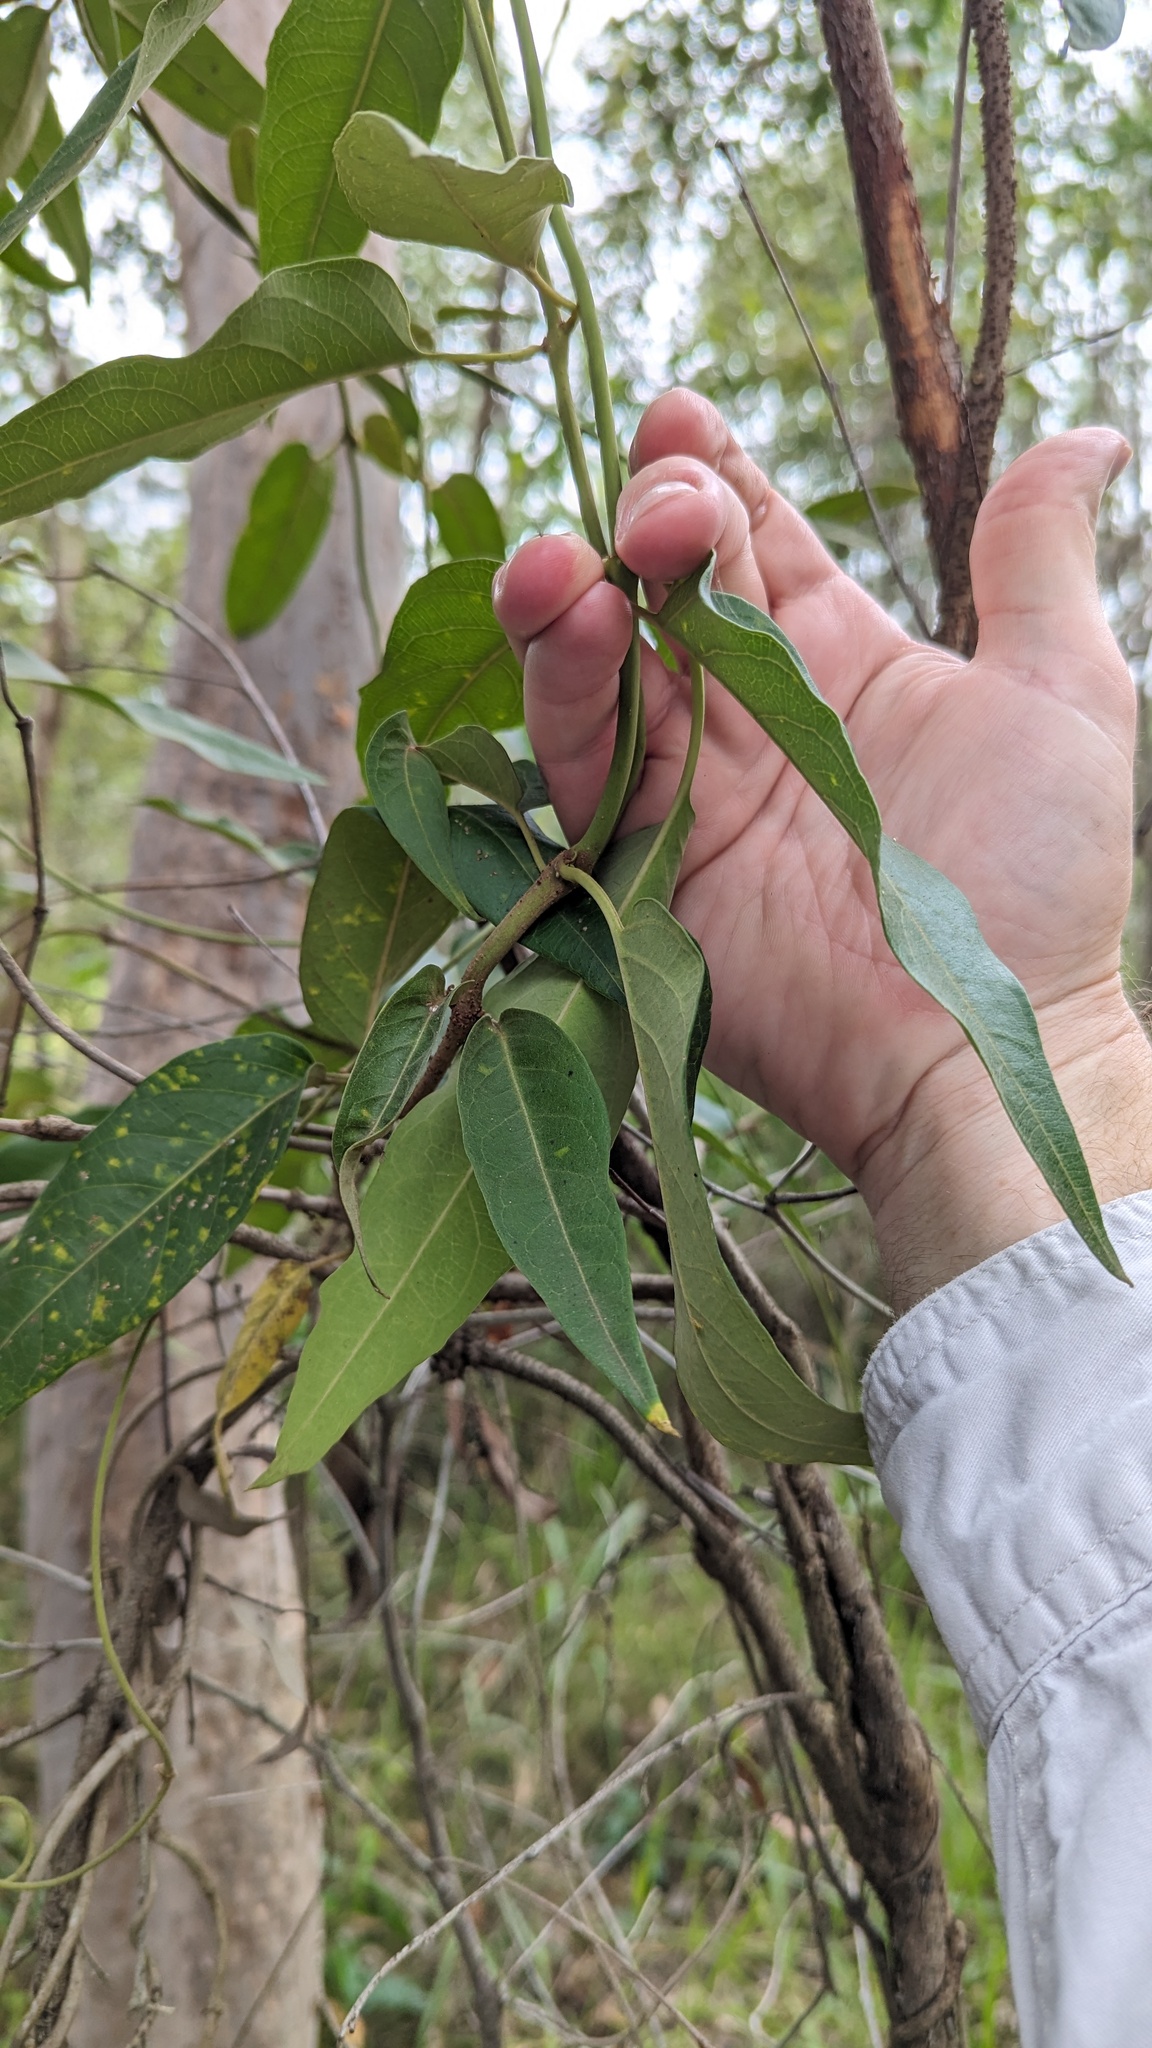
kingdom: Plantae
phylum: Tracheophyta
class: Magnoliopsida
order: Gentianales
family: Apocynaceae
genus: Parsonsia
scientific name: Parsonsia brisbanensis
